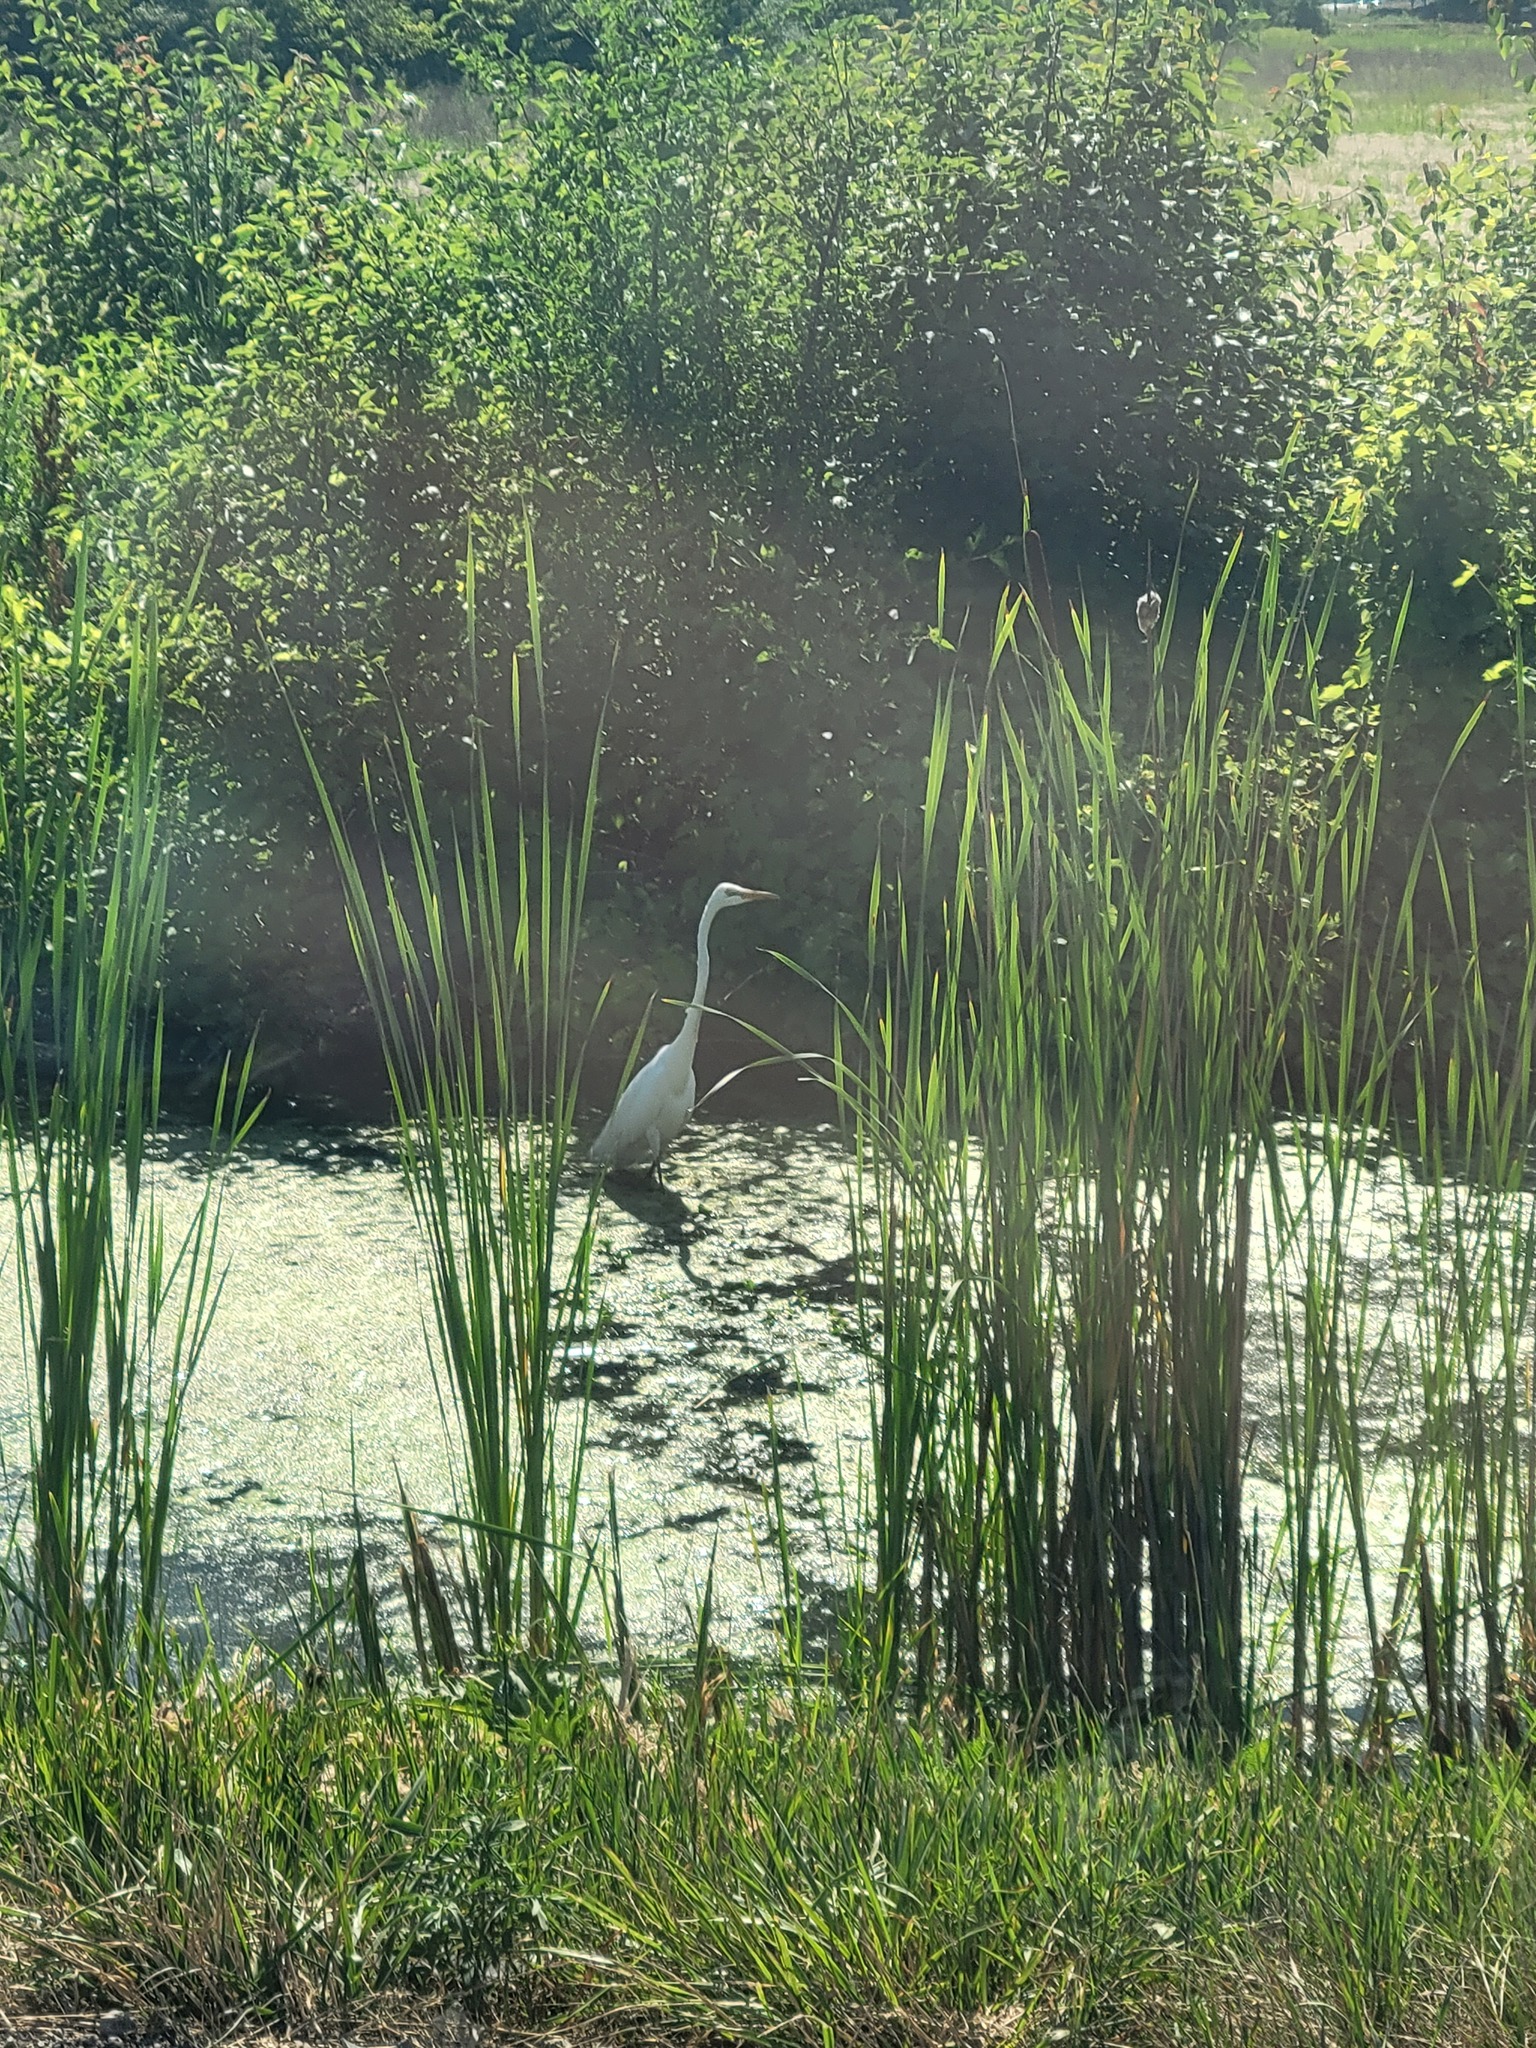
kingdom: Animalia
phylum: Chordata
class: Aves
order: Pelecaniformes
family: Ardeidae
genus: Ardea
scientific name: Ardea alba
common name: Great egret
